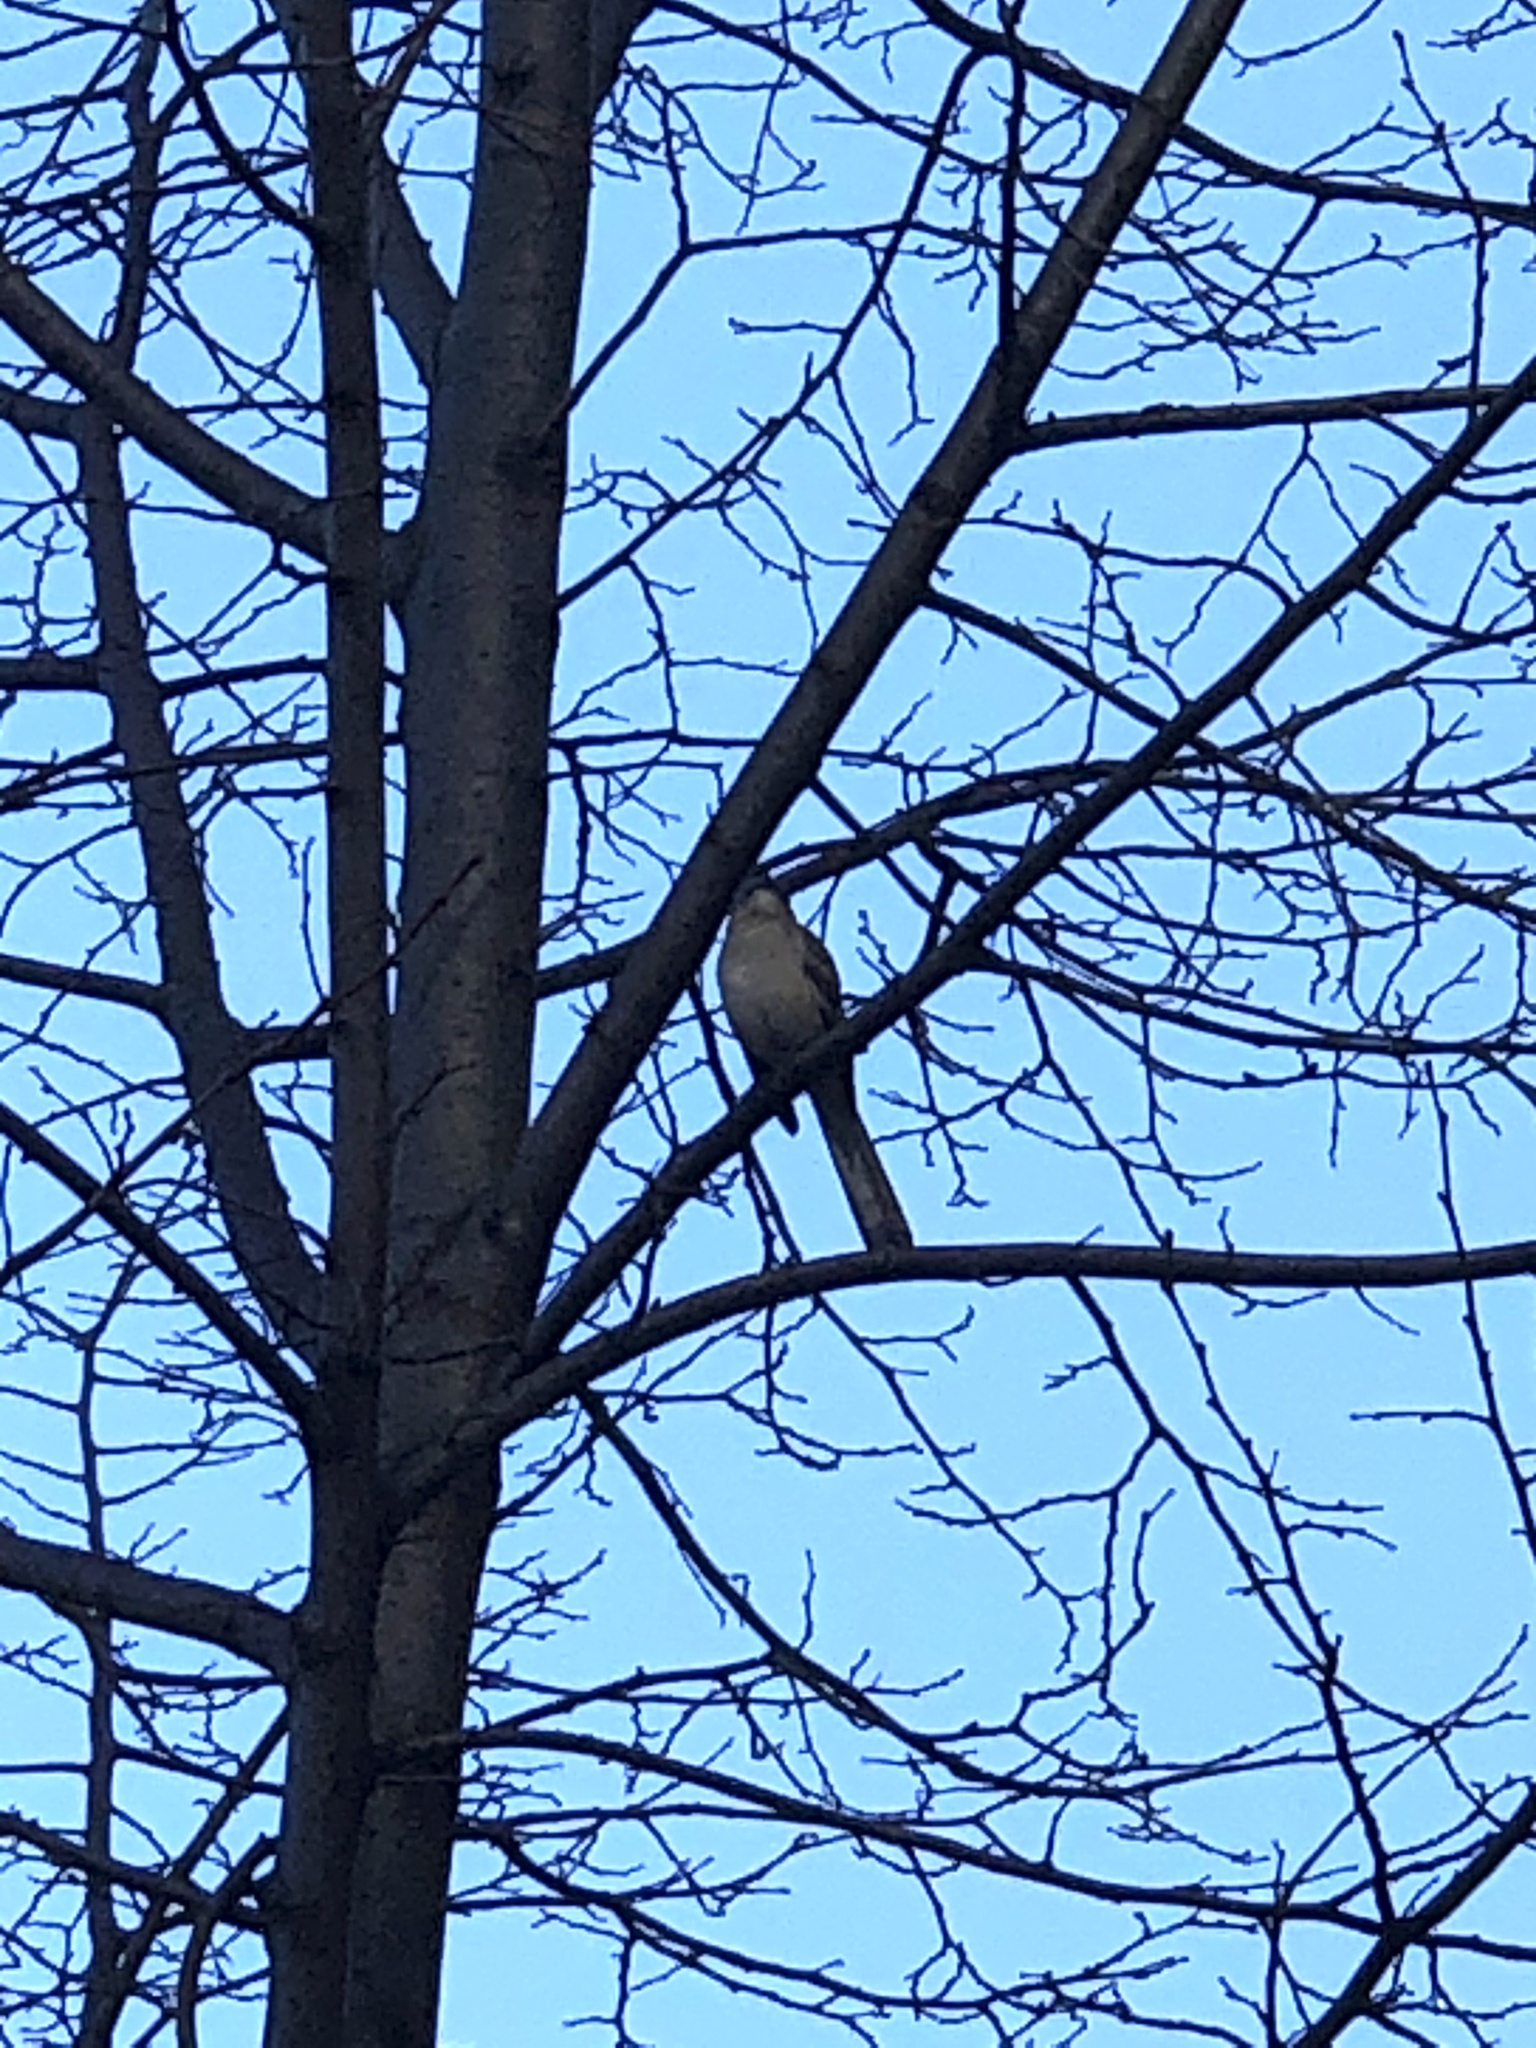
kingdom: Animalia
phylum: Chordata
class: Aves
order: Passeriformes
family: Mimidae
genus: Mimus
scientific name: Mimus polyglottos
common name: Northern mockingbird
